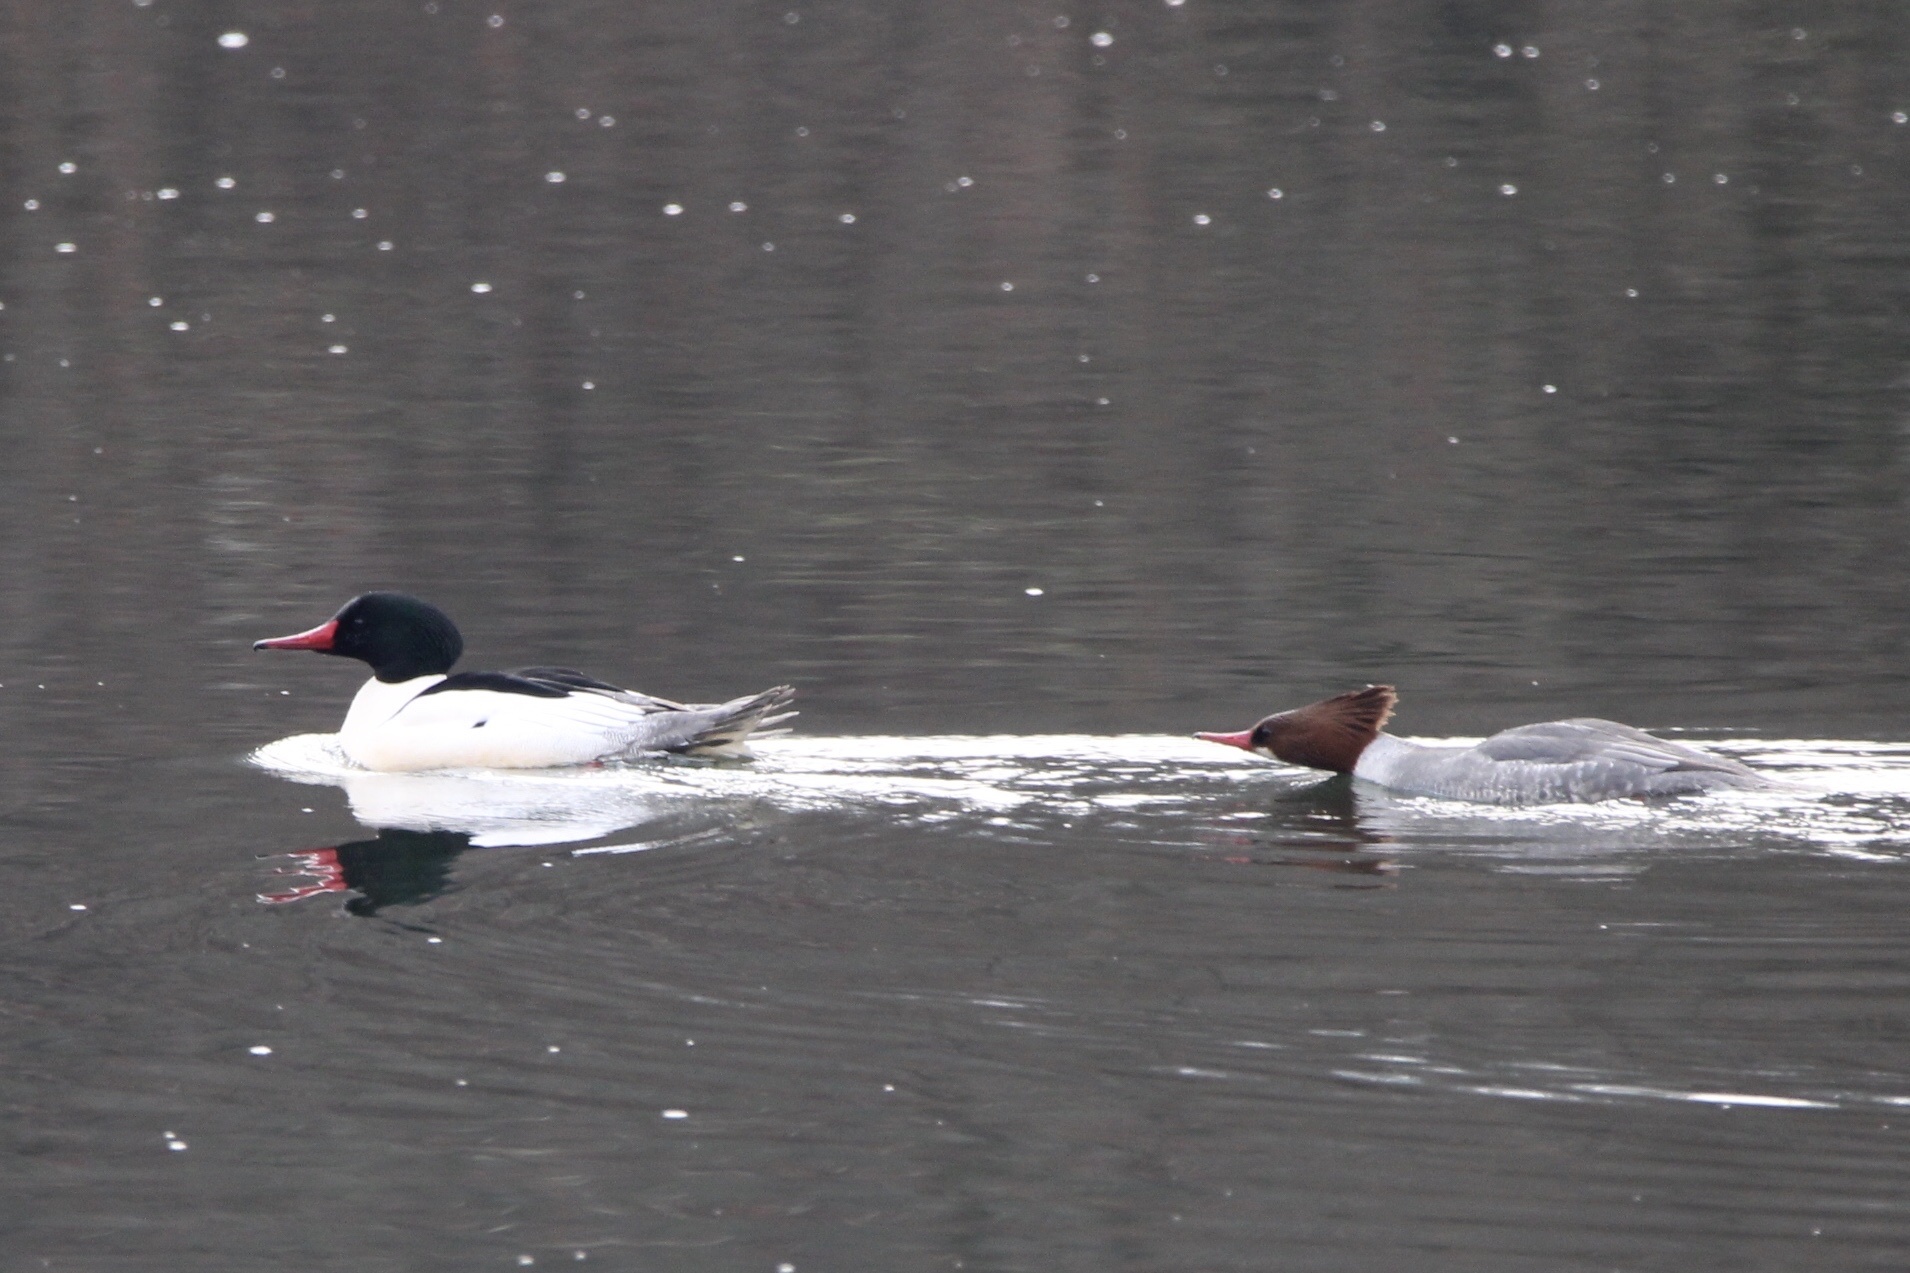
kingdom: Animalia
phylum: Chordata
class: Aves
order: Anseriformes
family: Anatidae
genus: Mergus
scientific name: Mergus merganser
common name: Common merganser
